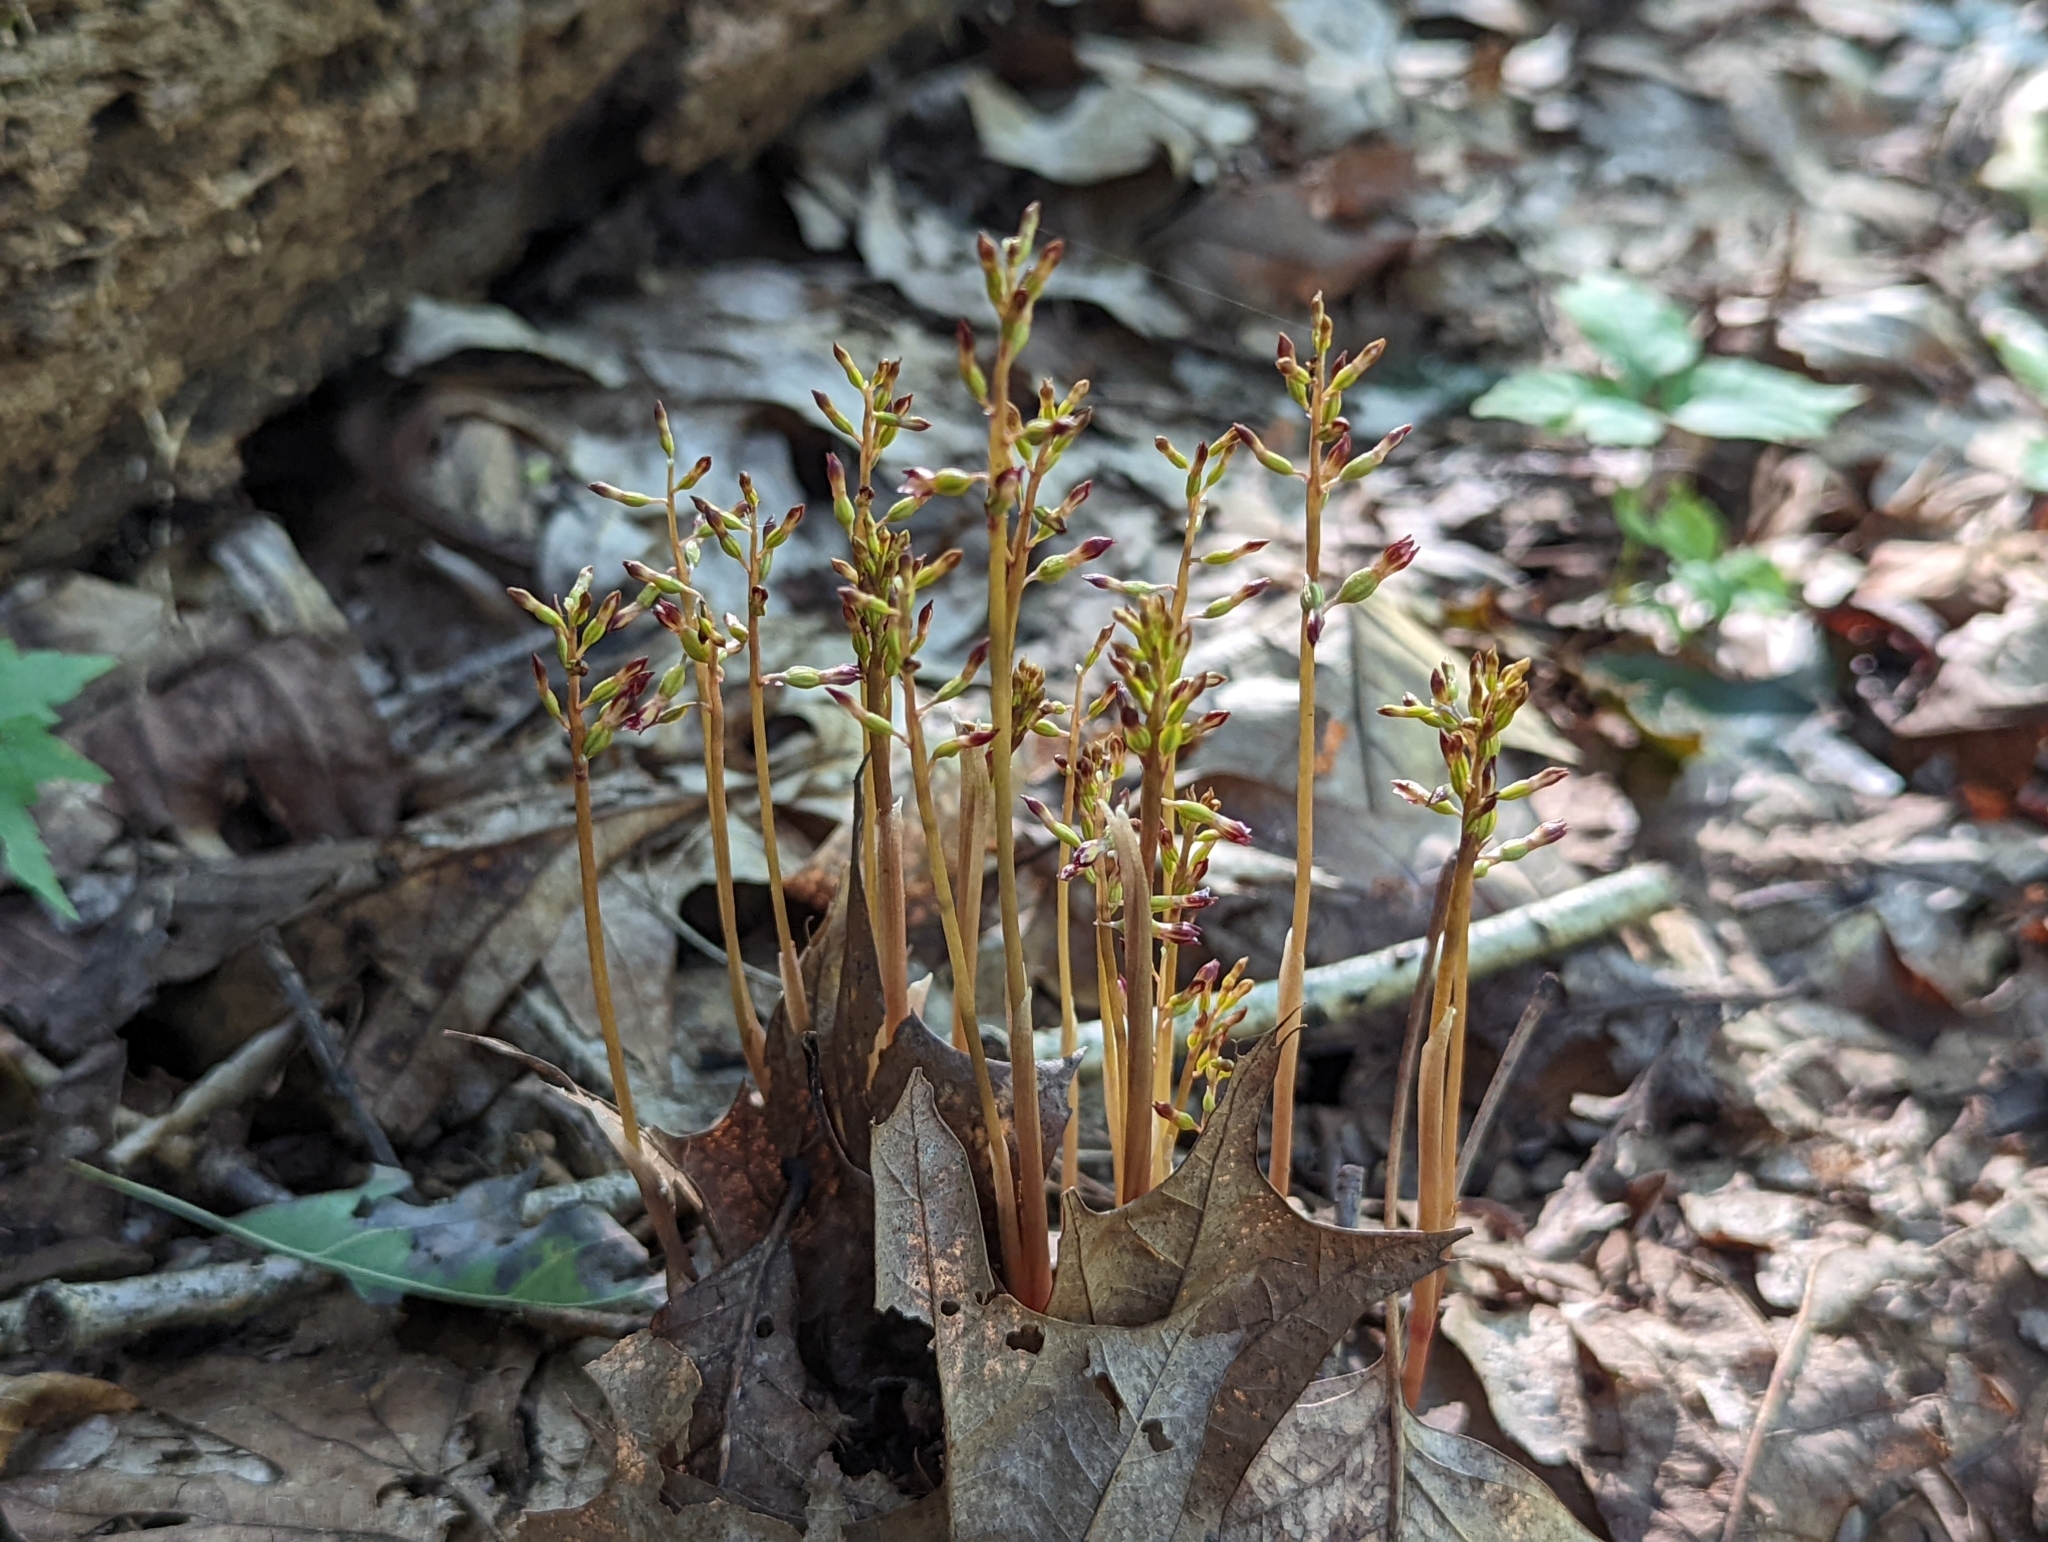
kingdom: Plantae
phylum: Tracheophyta
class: Liliopsida
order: Asparagales
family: Orchidaceae
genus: Corallorhiza
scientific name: Corallorhiza odontorhiza
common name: Autumn coralroot
